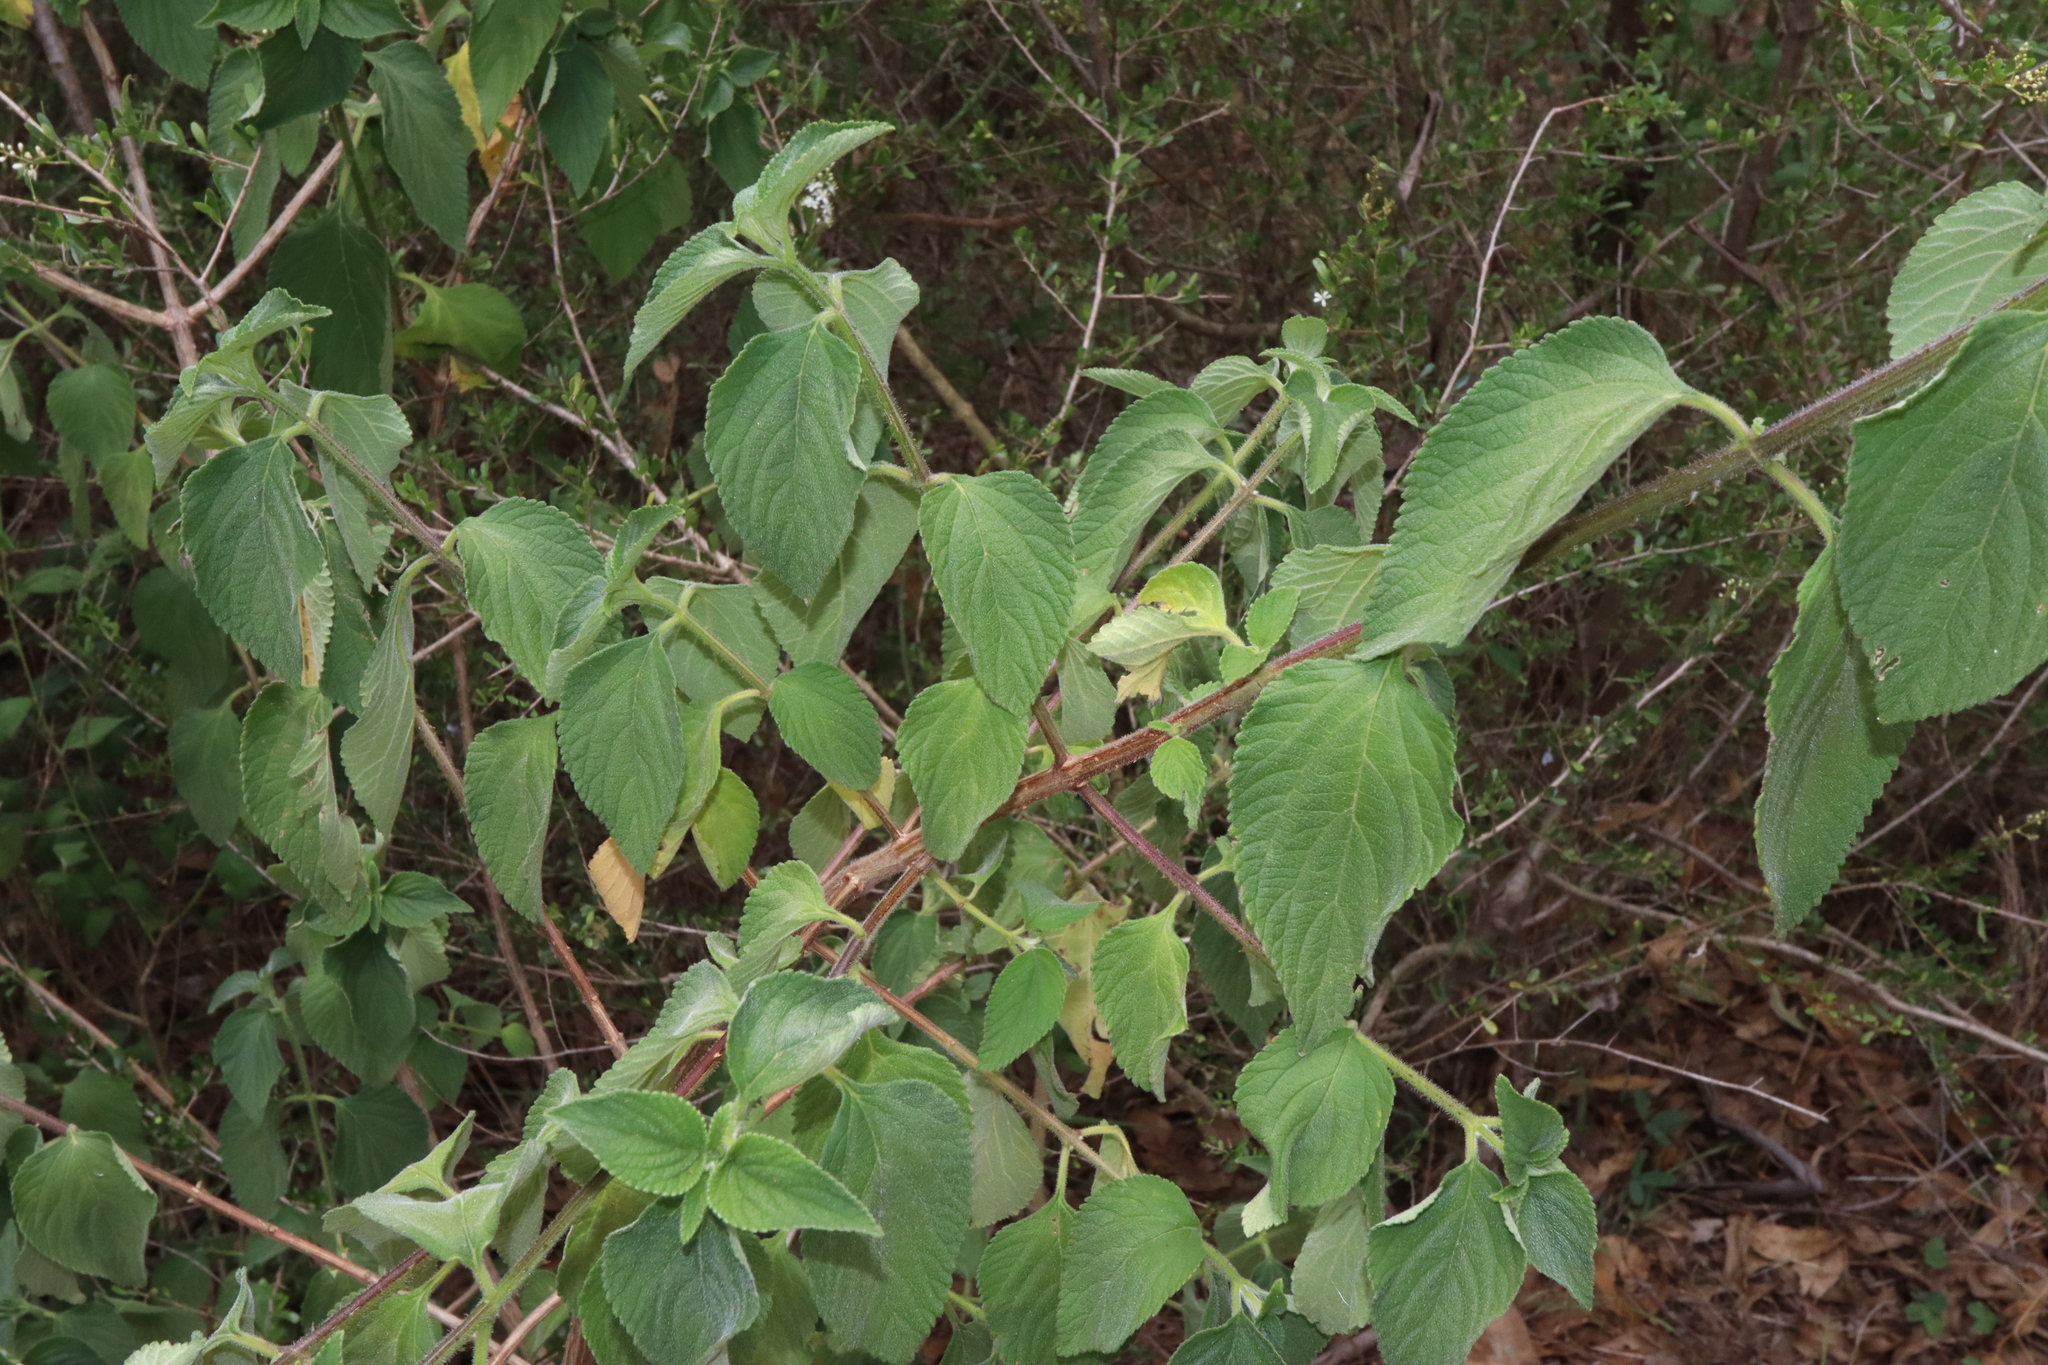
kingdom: Plantae
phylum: Tracheophyta
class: Magnoliopsida
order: Lamiales
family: Verbenaceae
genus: Lantana
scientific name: Lantana camara
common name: Lantana
